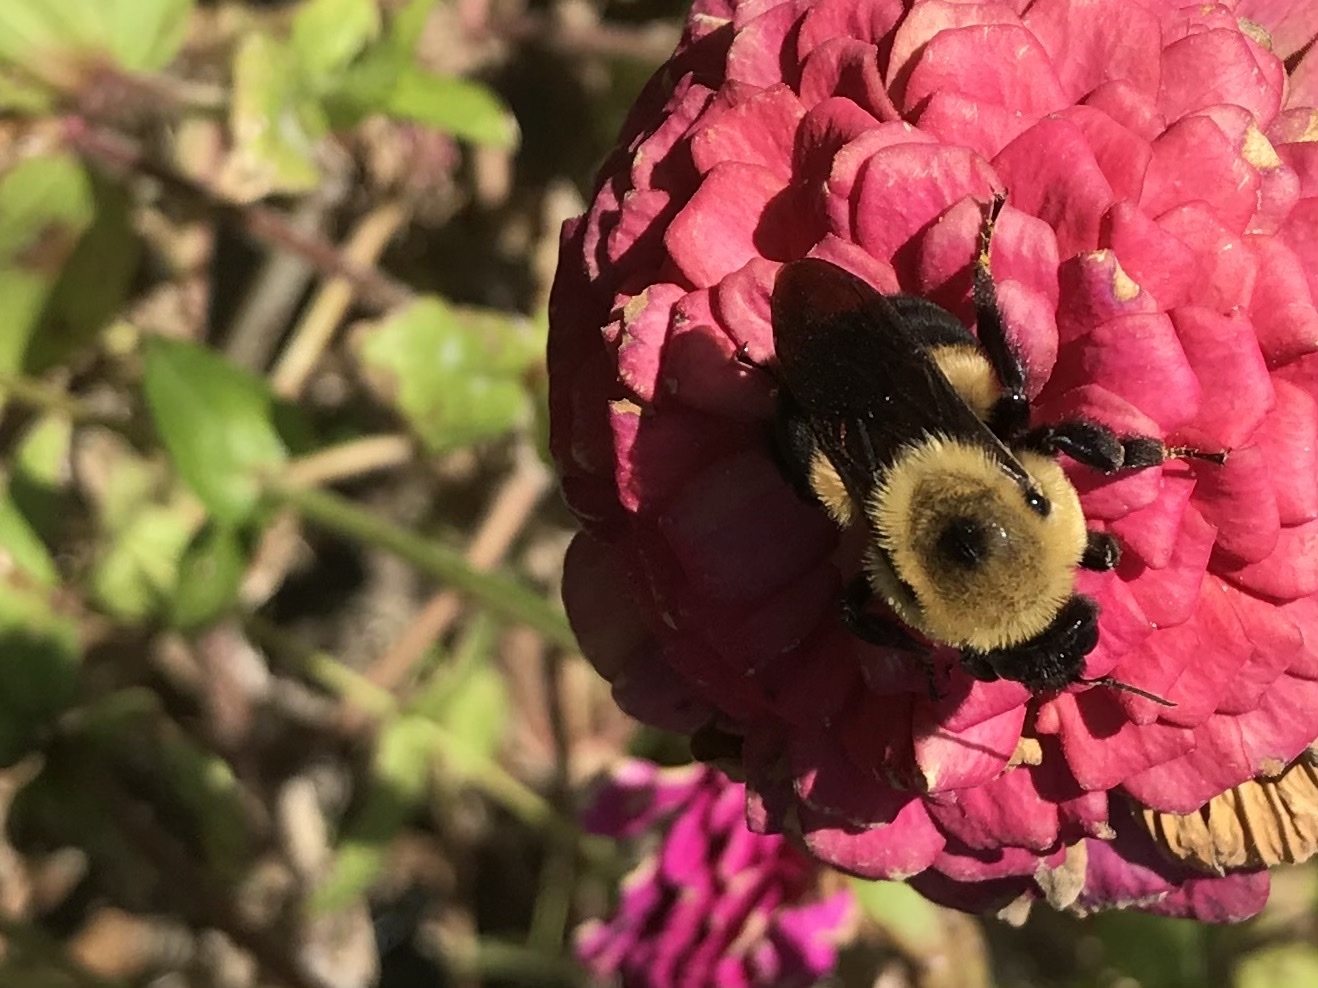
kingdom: Animalia
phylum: Arthropoda
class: Insecta
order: Hymenoptera
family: Apidae
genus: Bombus
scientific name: Bombus griseocollis
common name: Brown-belted bumble bee
